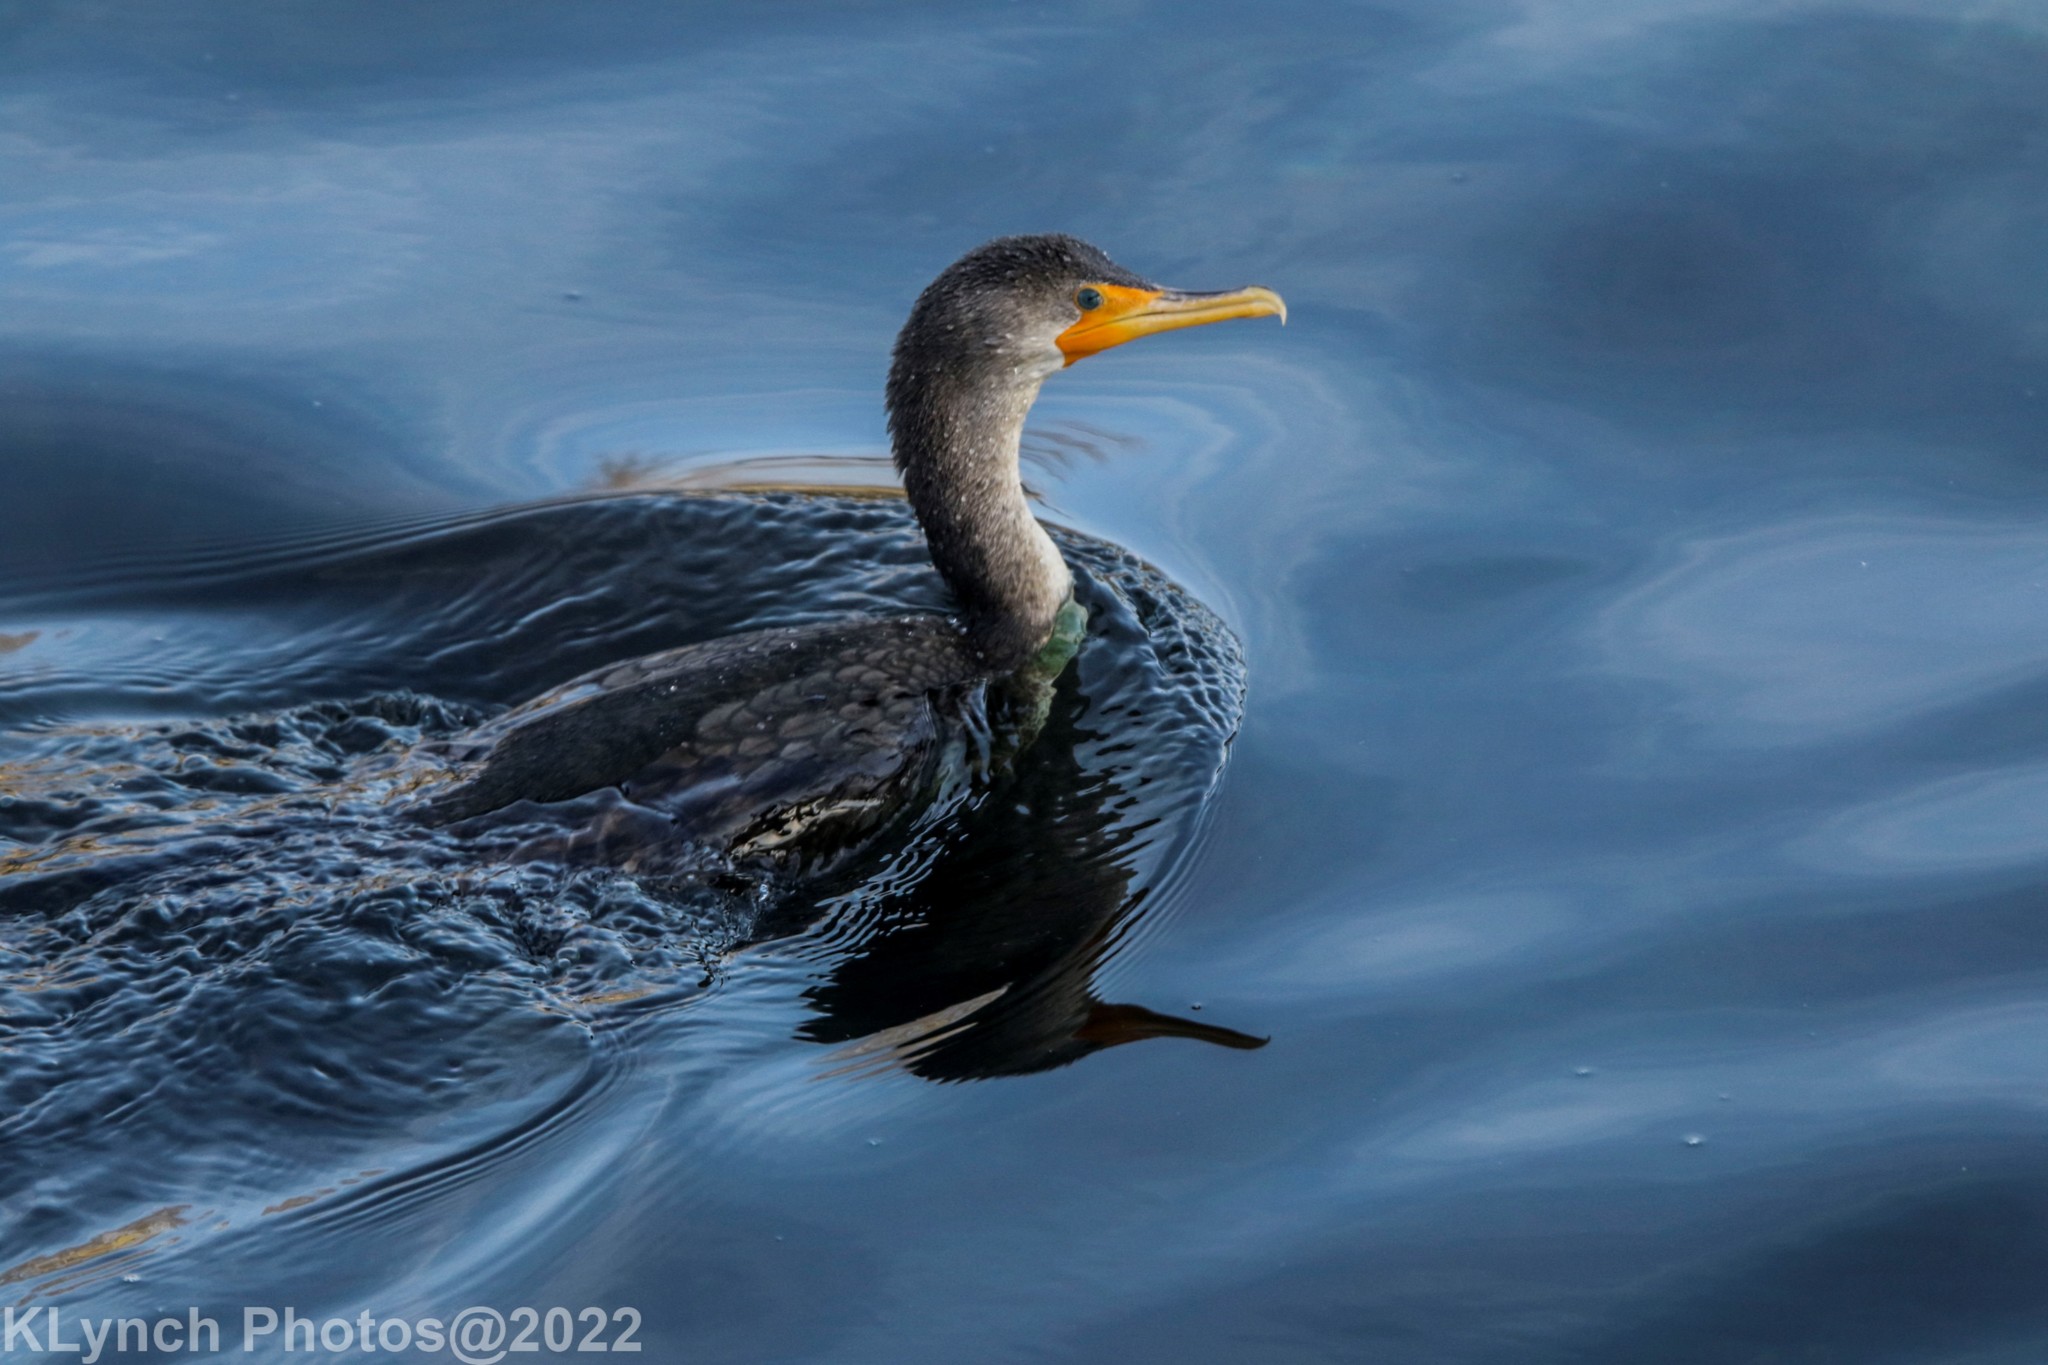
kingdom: Animalia
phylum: Chordata
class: Aves
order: Suliformes
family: Phalacrocoracidae
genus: Phalacrocorax
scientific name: Phalacrocorax auritus
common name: Double-crested cormorant
